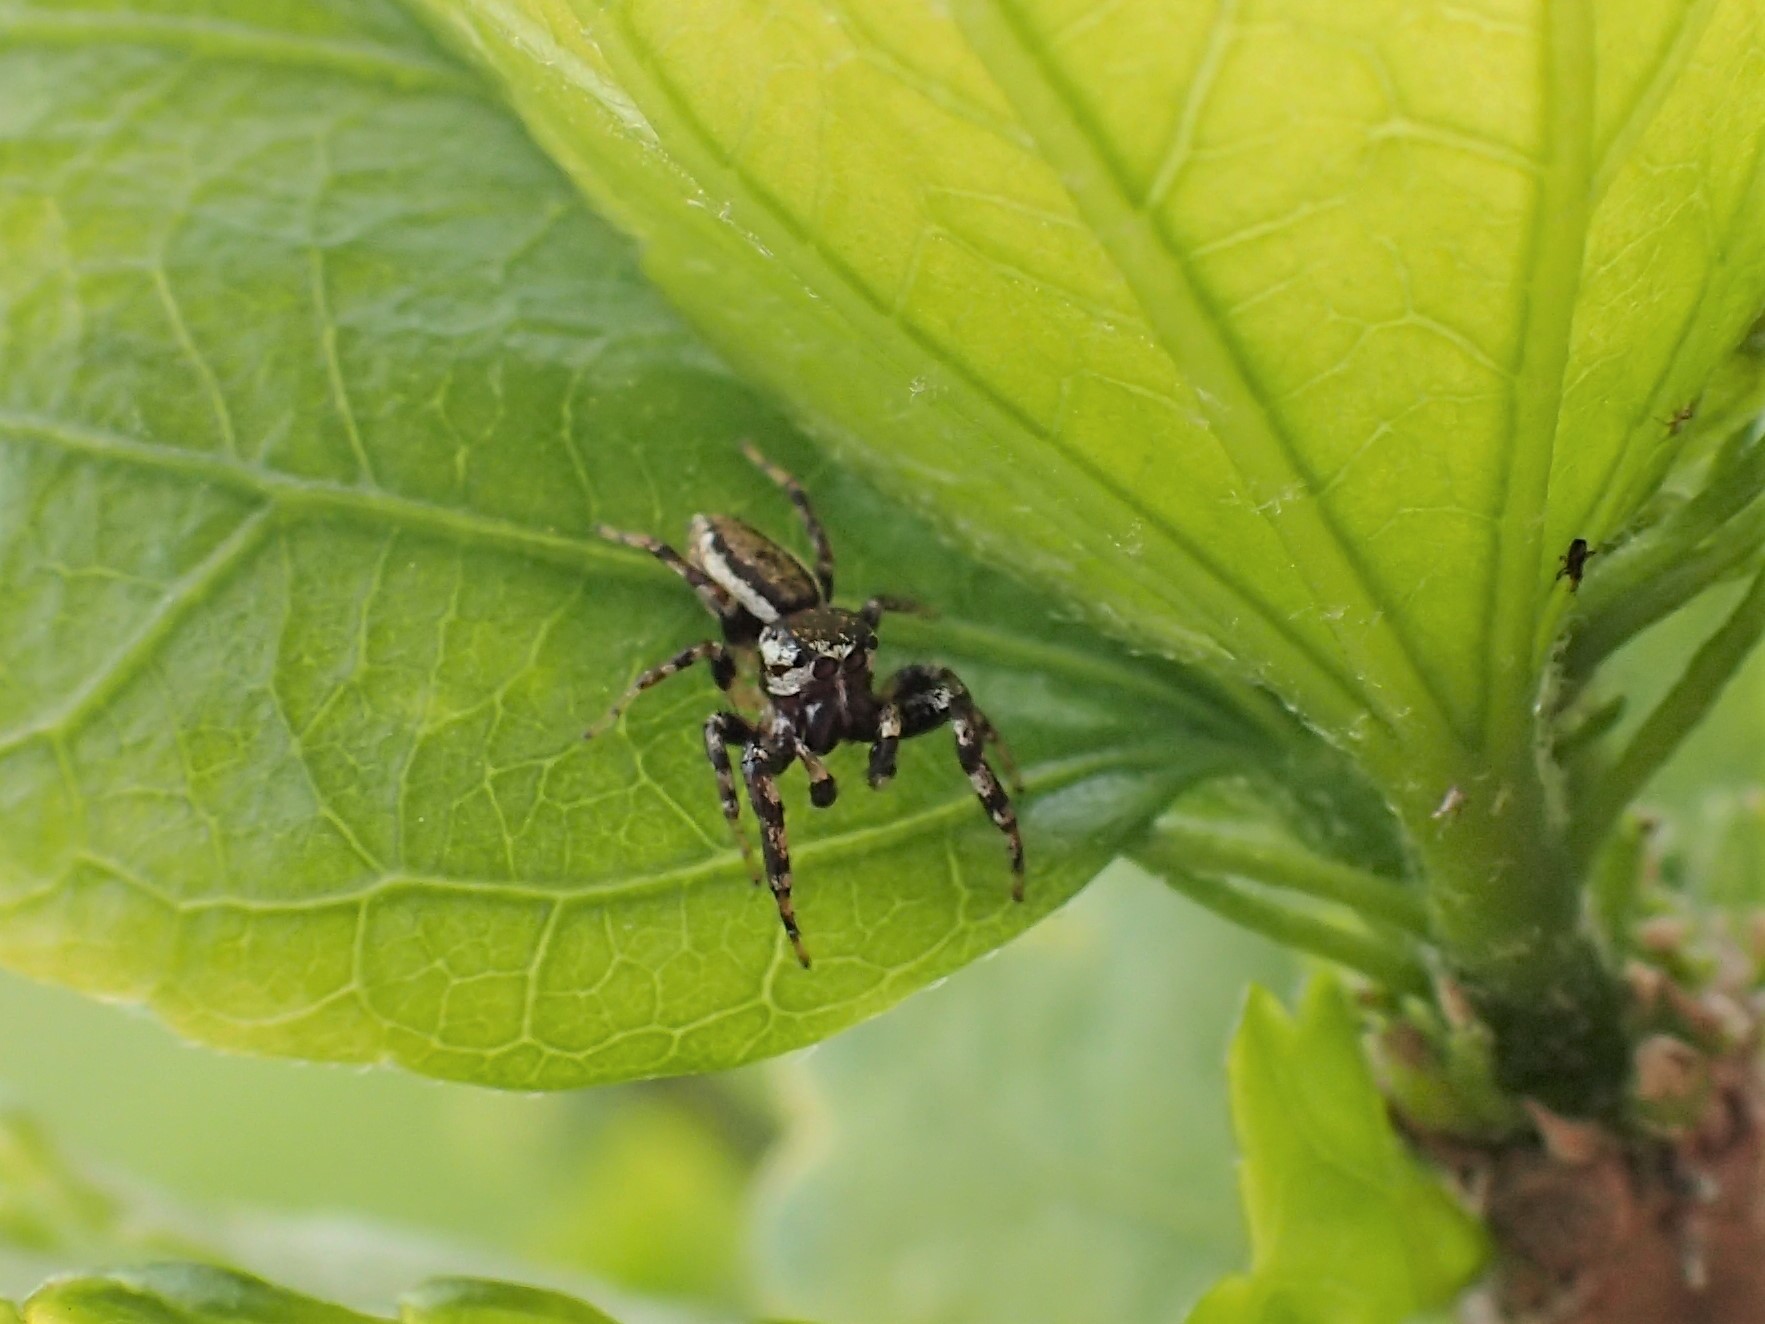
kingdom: Animalia
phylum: Arthropoda
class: Arachnida
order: Araneae
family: Salticidae
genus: Pelegrina
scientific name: Pelegrina proterva
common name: Common white-cheeked jumping spider
